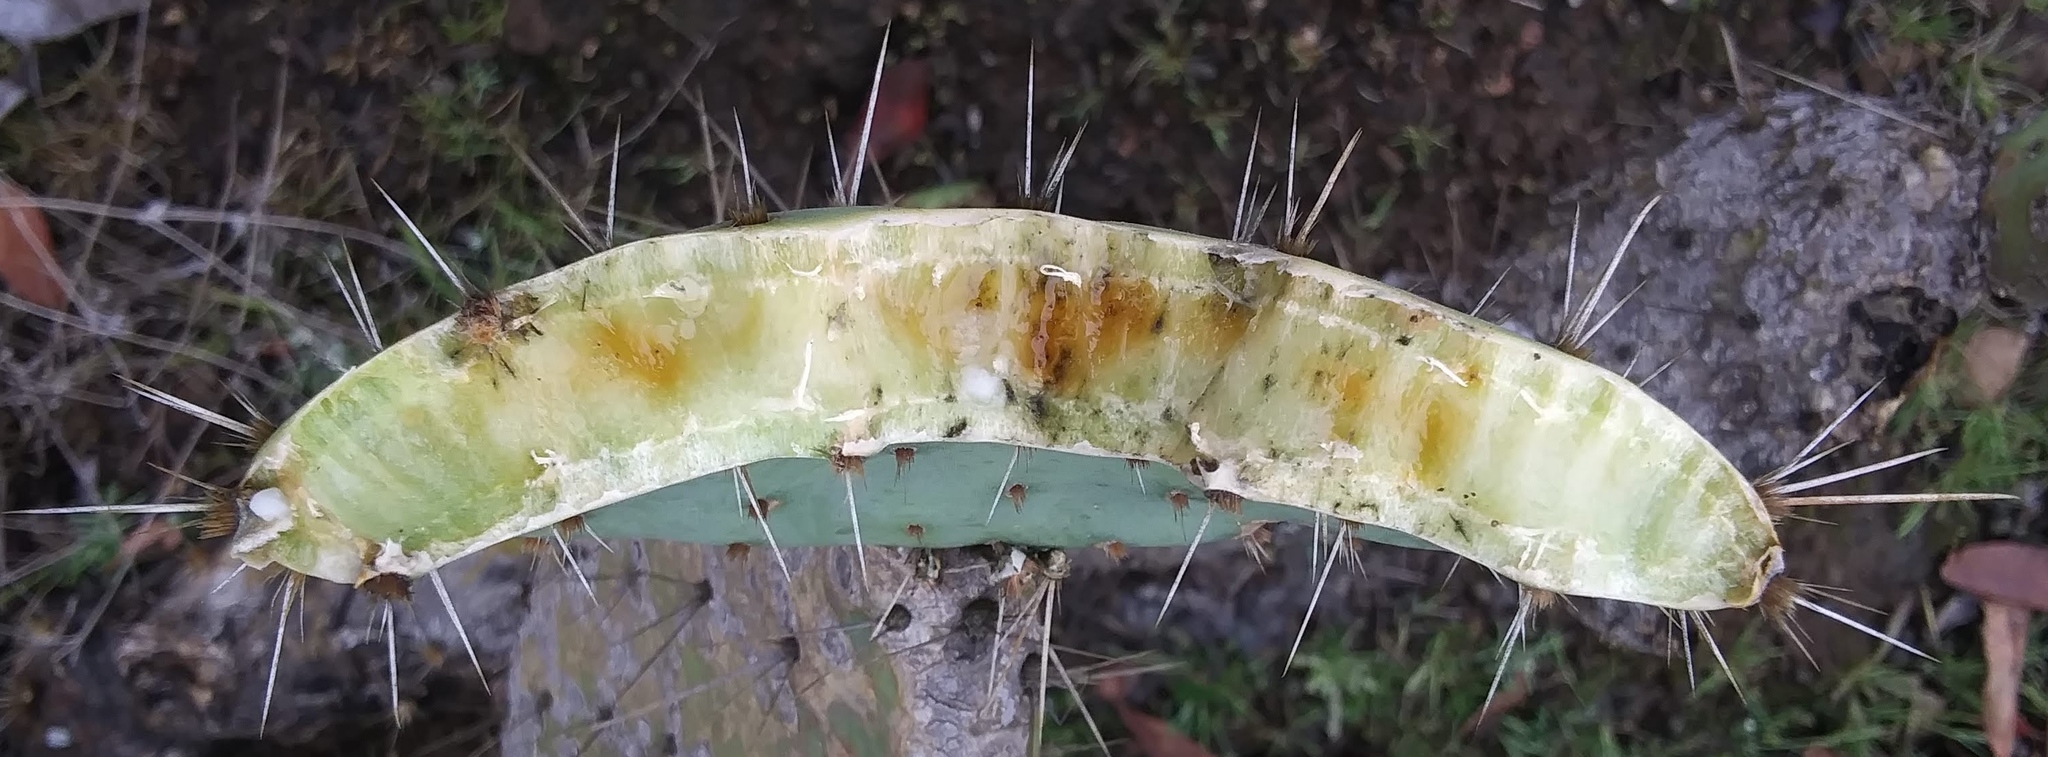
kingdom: Plantae
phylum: Tracheophyta
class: Magnoliopsida
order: Caryophyllales
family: Cactaceae
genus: Opuntia
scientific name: Opuntia littoralis
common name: Coastal prickly-pear
